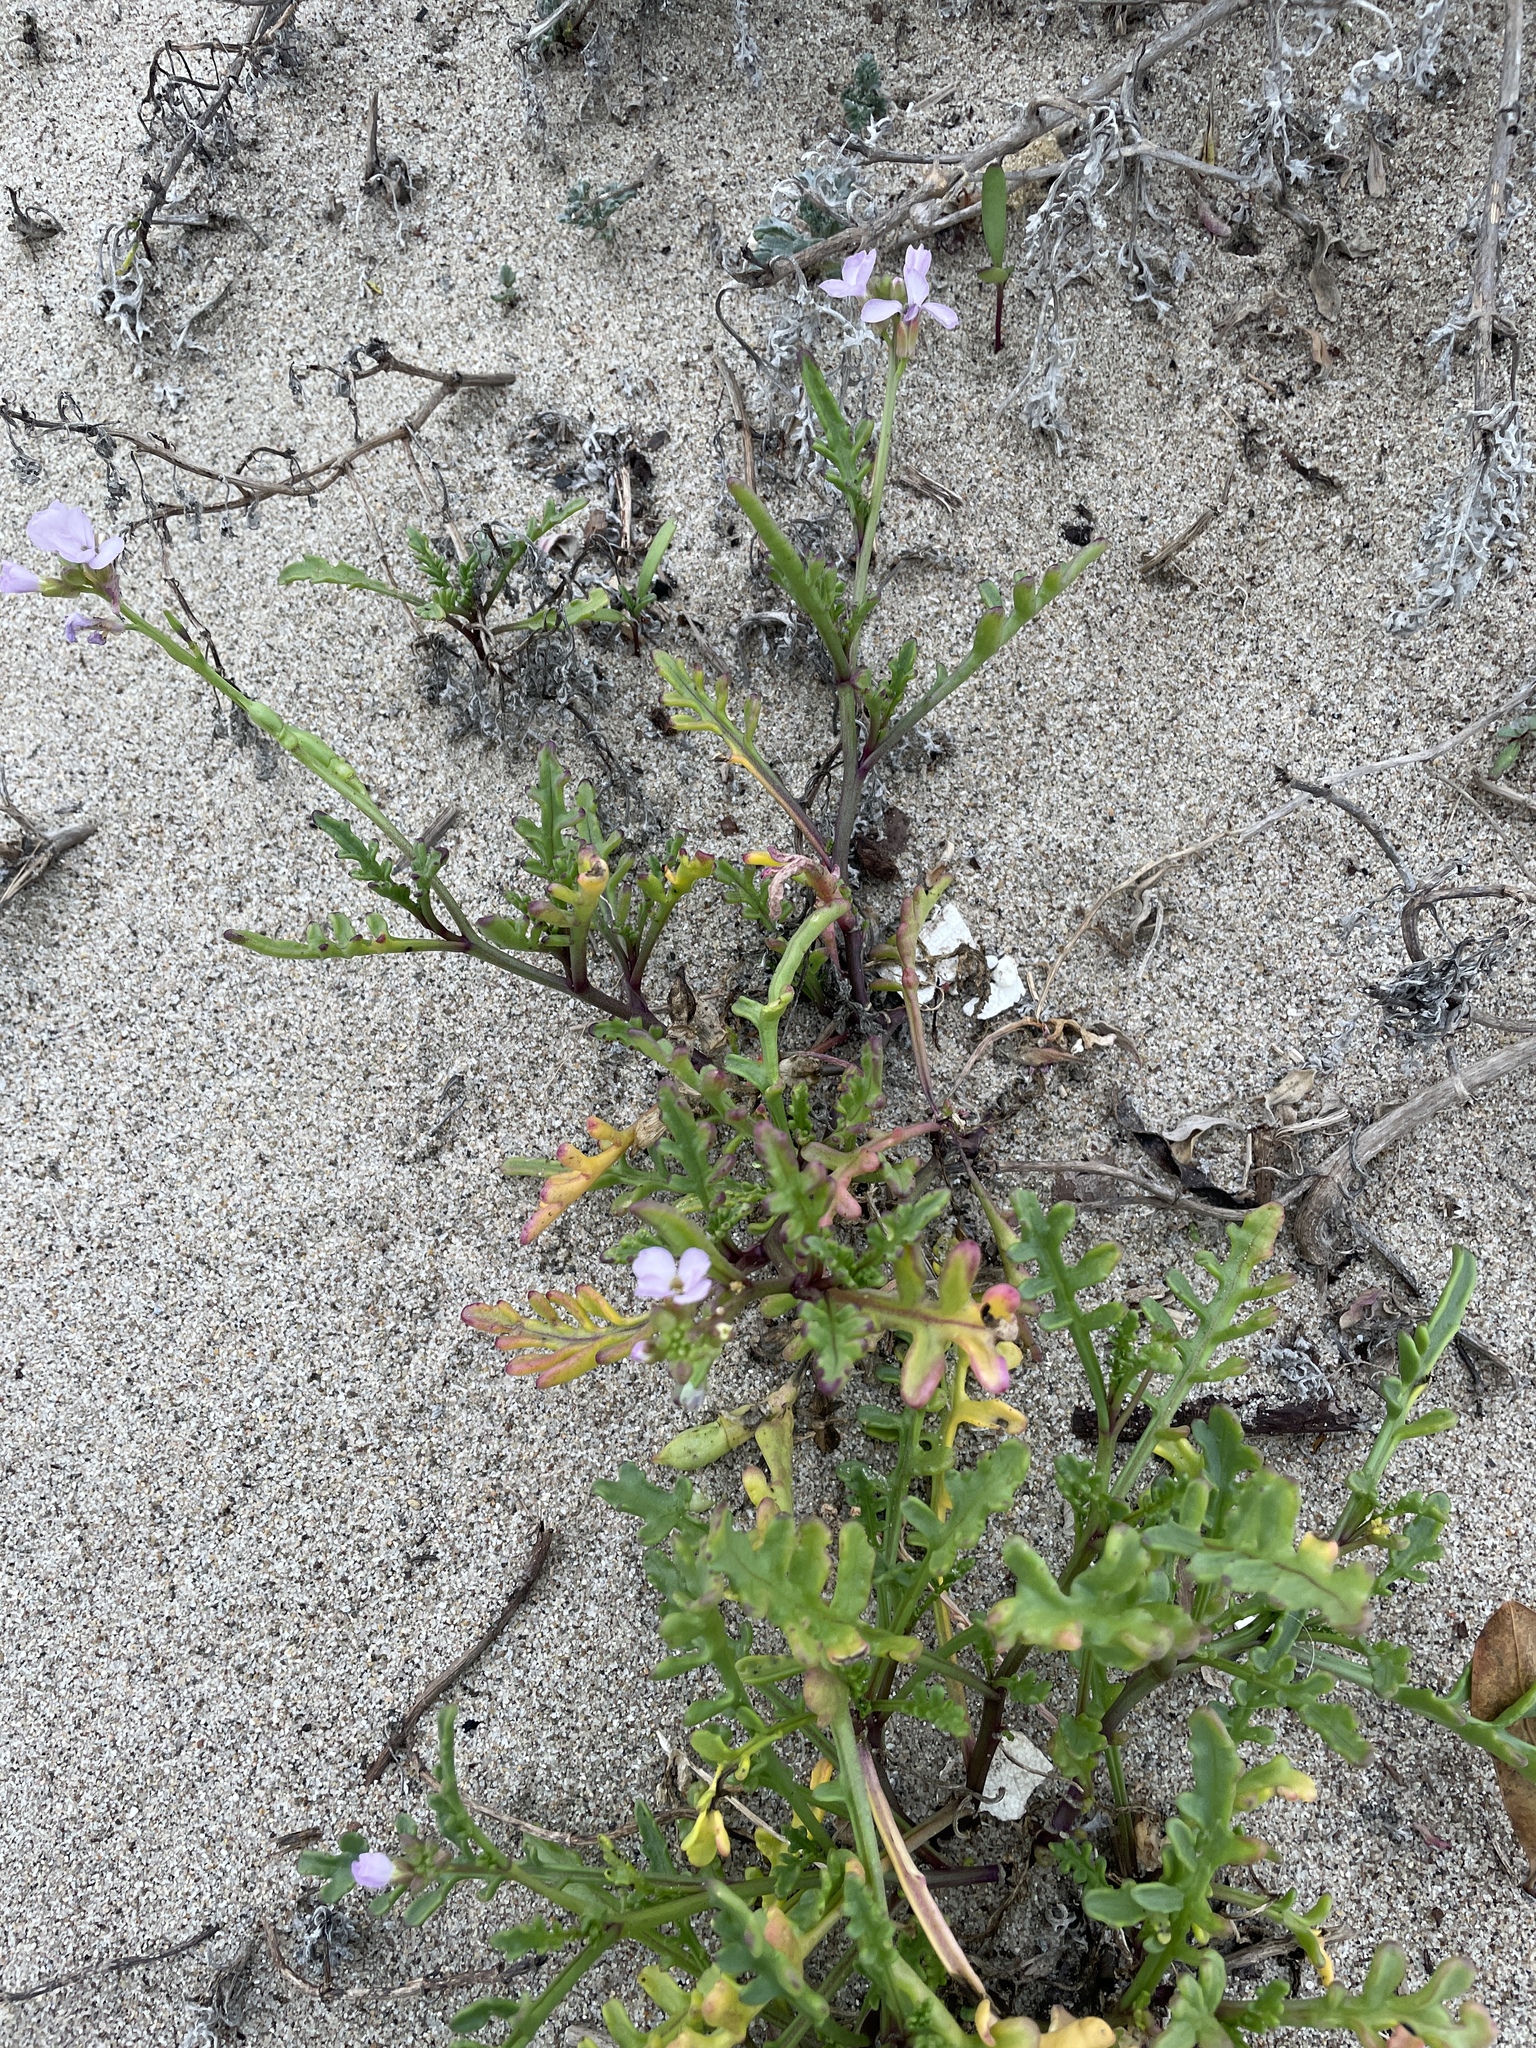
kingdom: Plantae
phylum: Tracheophyta
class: Magnoliopsida
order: Brassicales
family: Brassicaceae
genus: Cakile
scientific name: Cakile maritima
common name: Sea rocket
